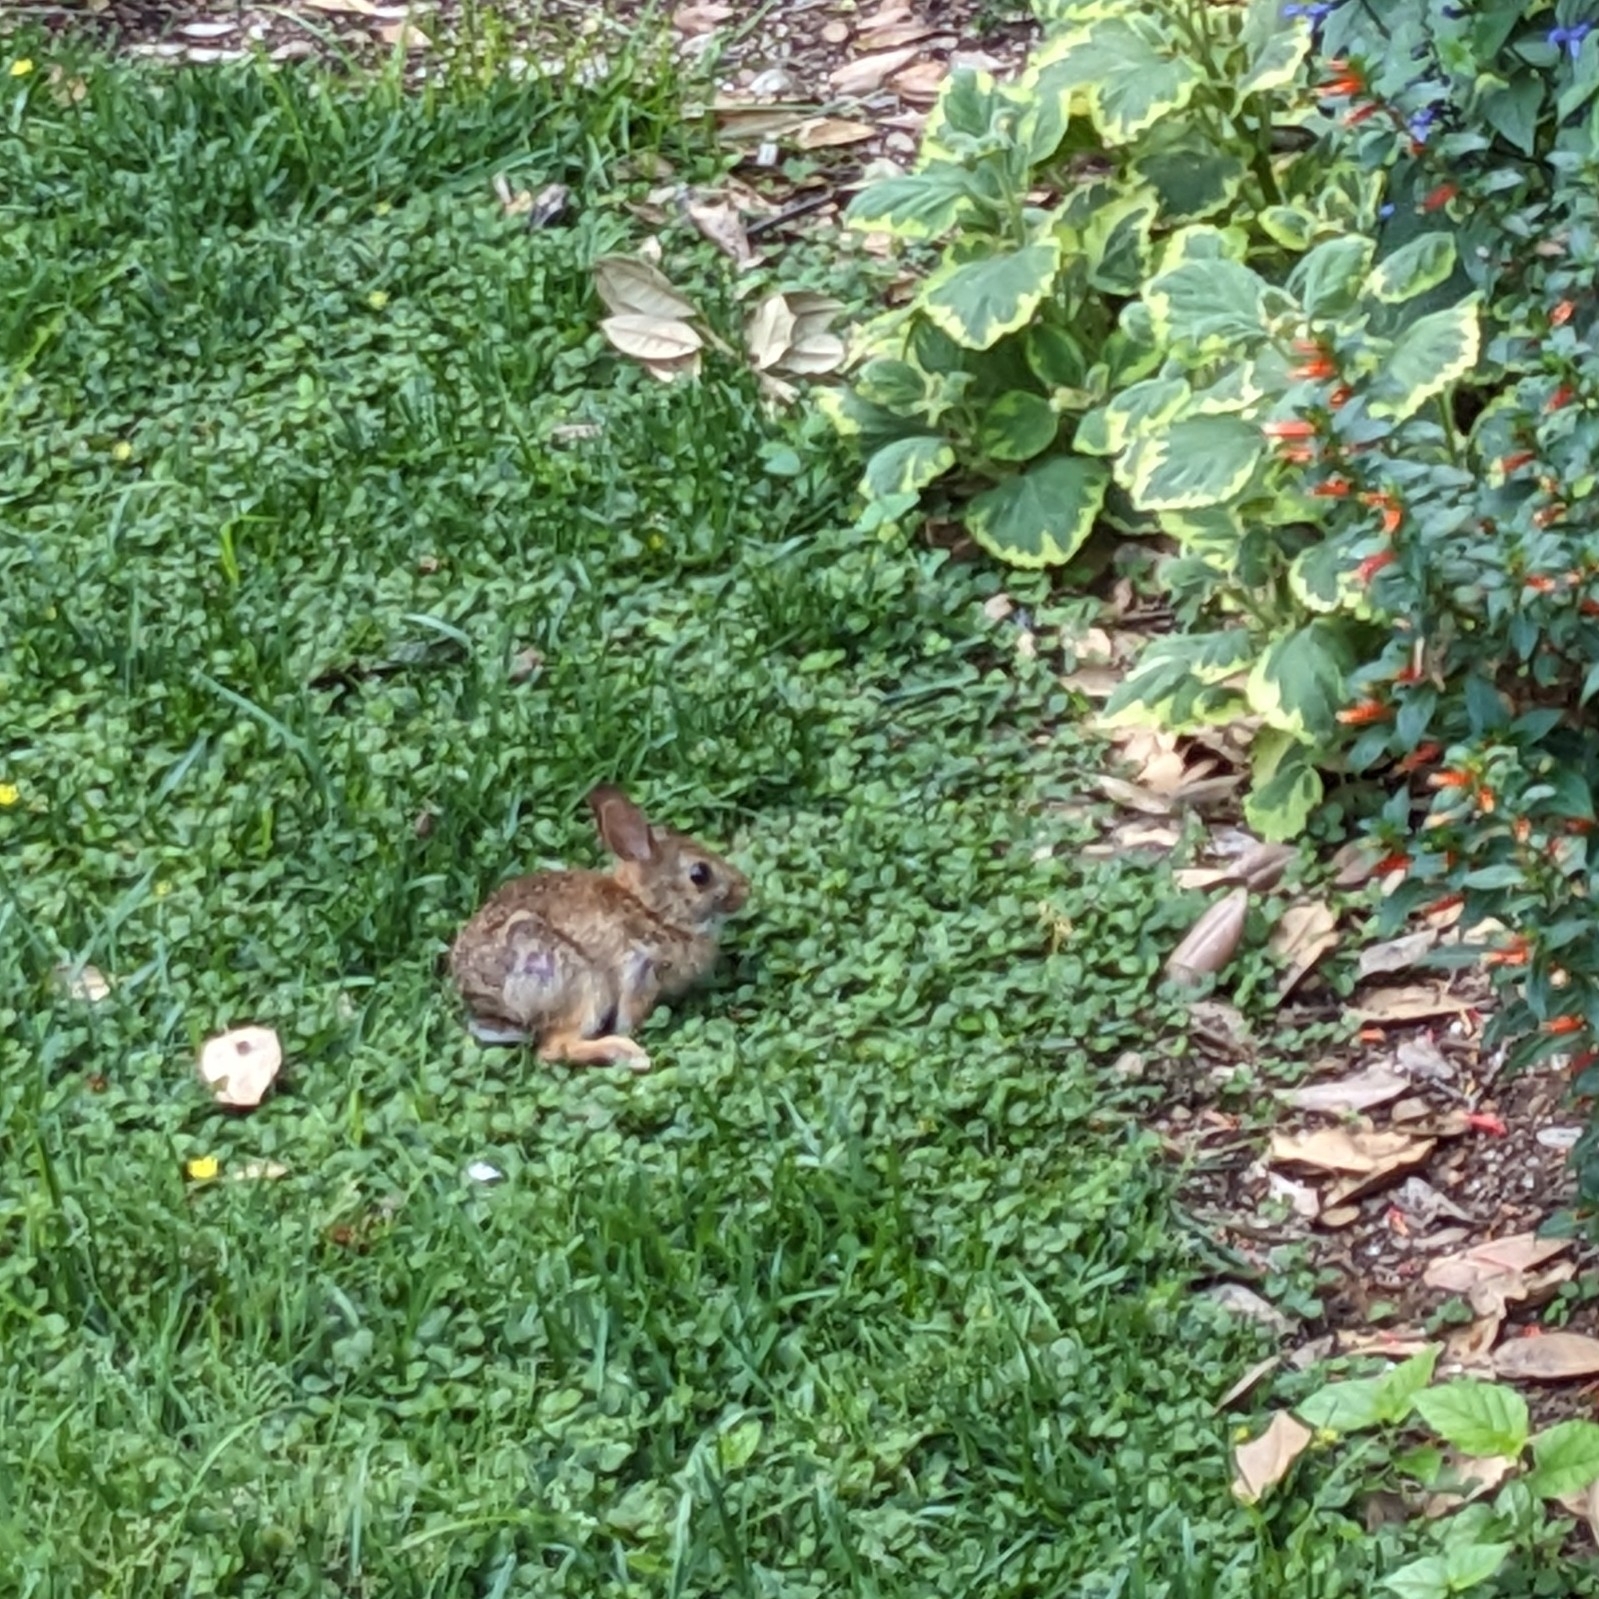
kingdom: Animalia
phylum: Chordata
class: Mammalia
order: Lagomorpha
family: Leporidae
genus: Sylvilagus
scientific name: Sylvilagus floridanus
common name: Eastern cottontail
